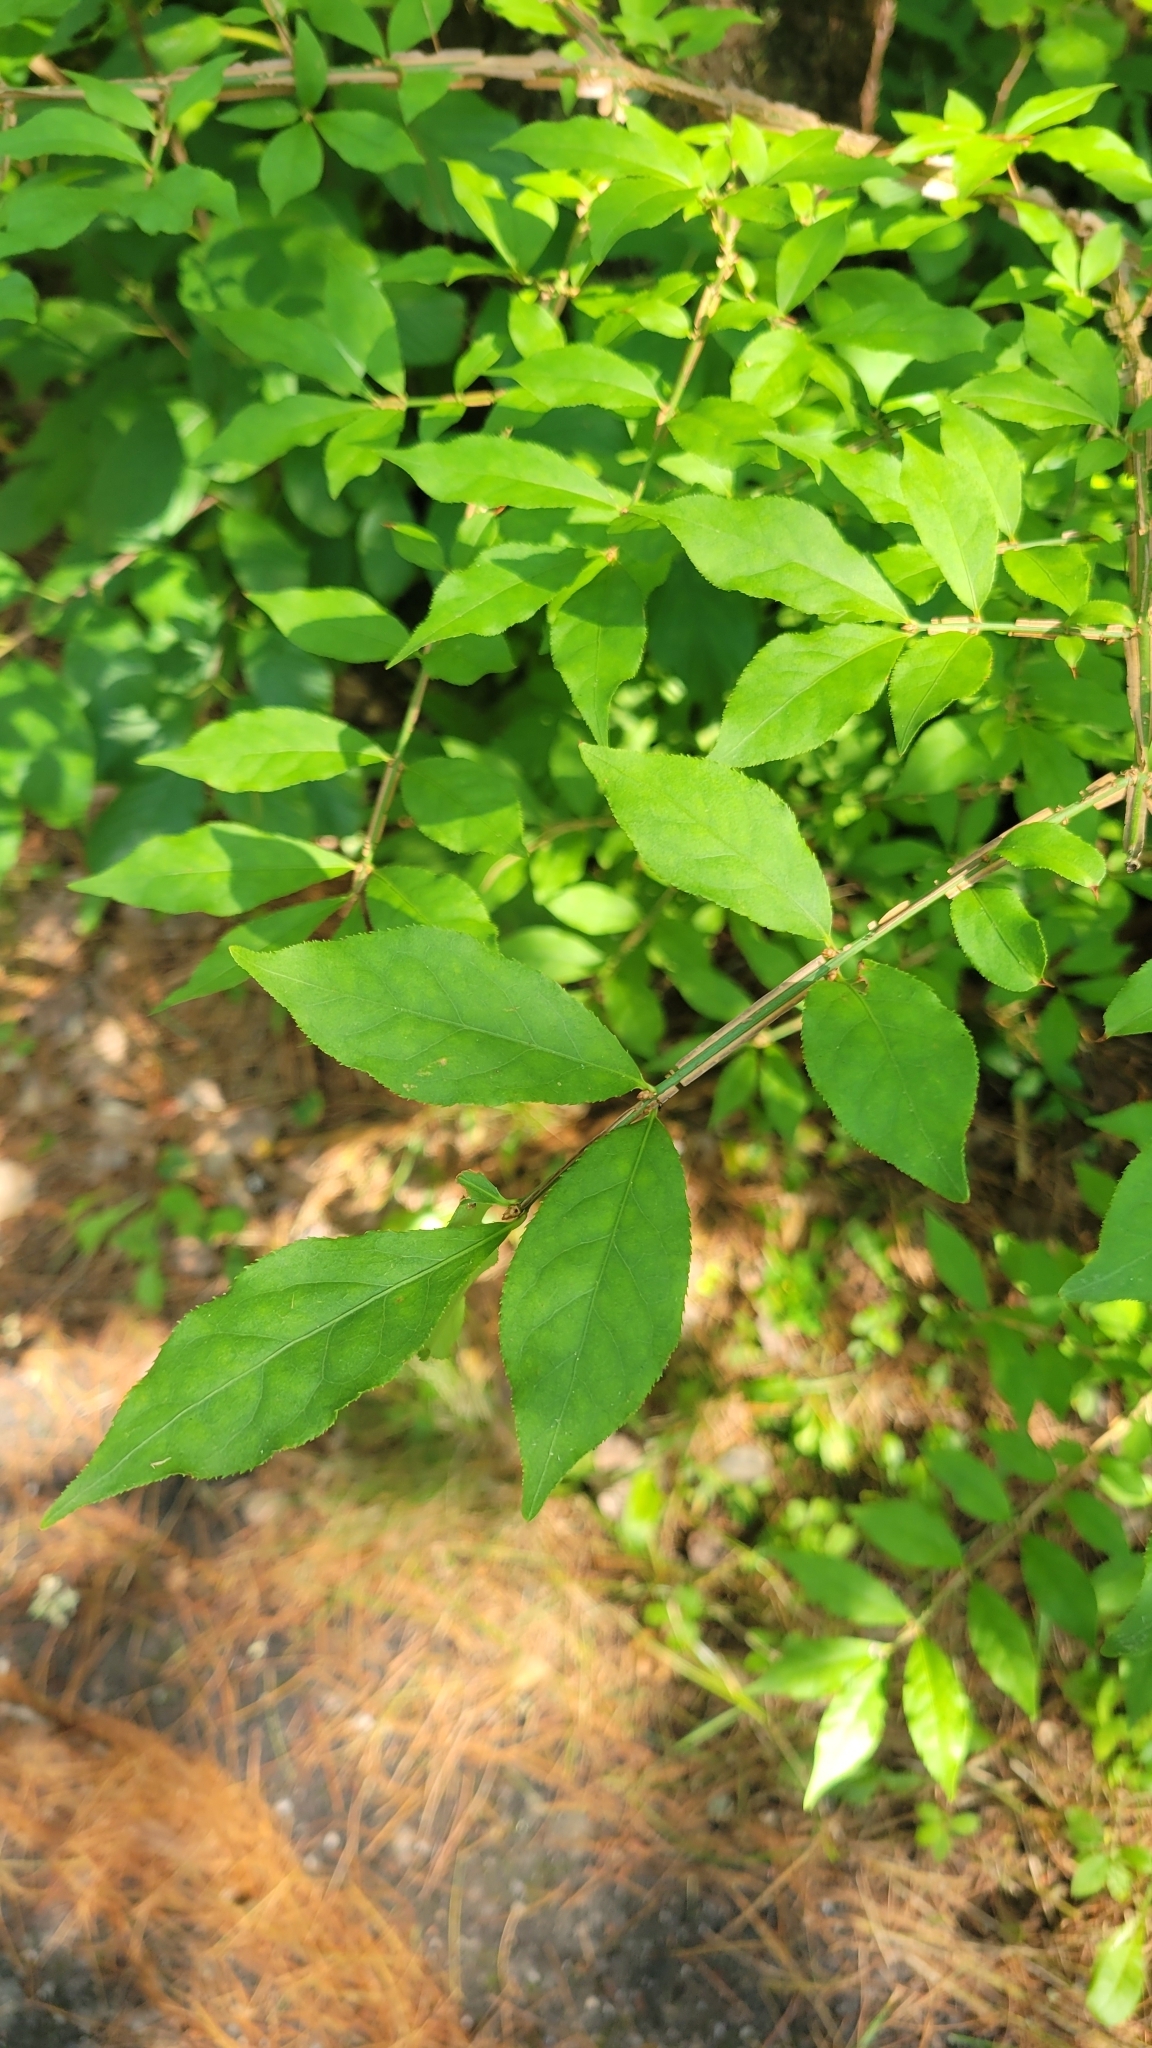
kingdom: Plantae
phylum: Tracheophyta
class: Magnoliopsida
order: Celastrales
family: Celastraceae
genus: Euonymus
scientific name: Euonymus alatus
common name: Winged euonymus
